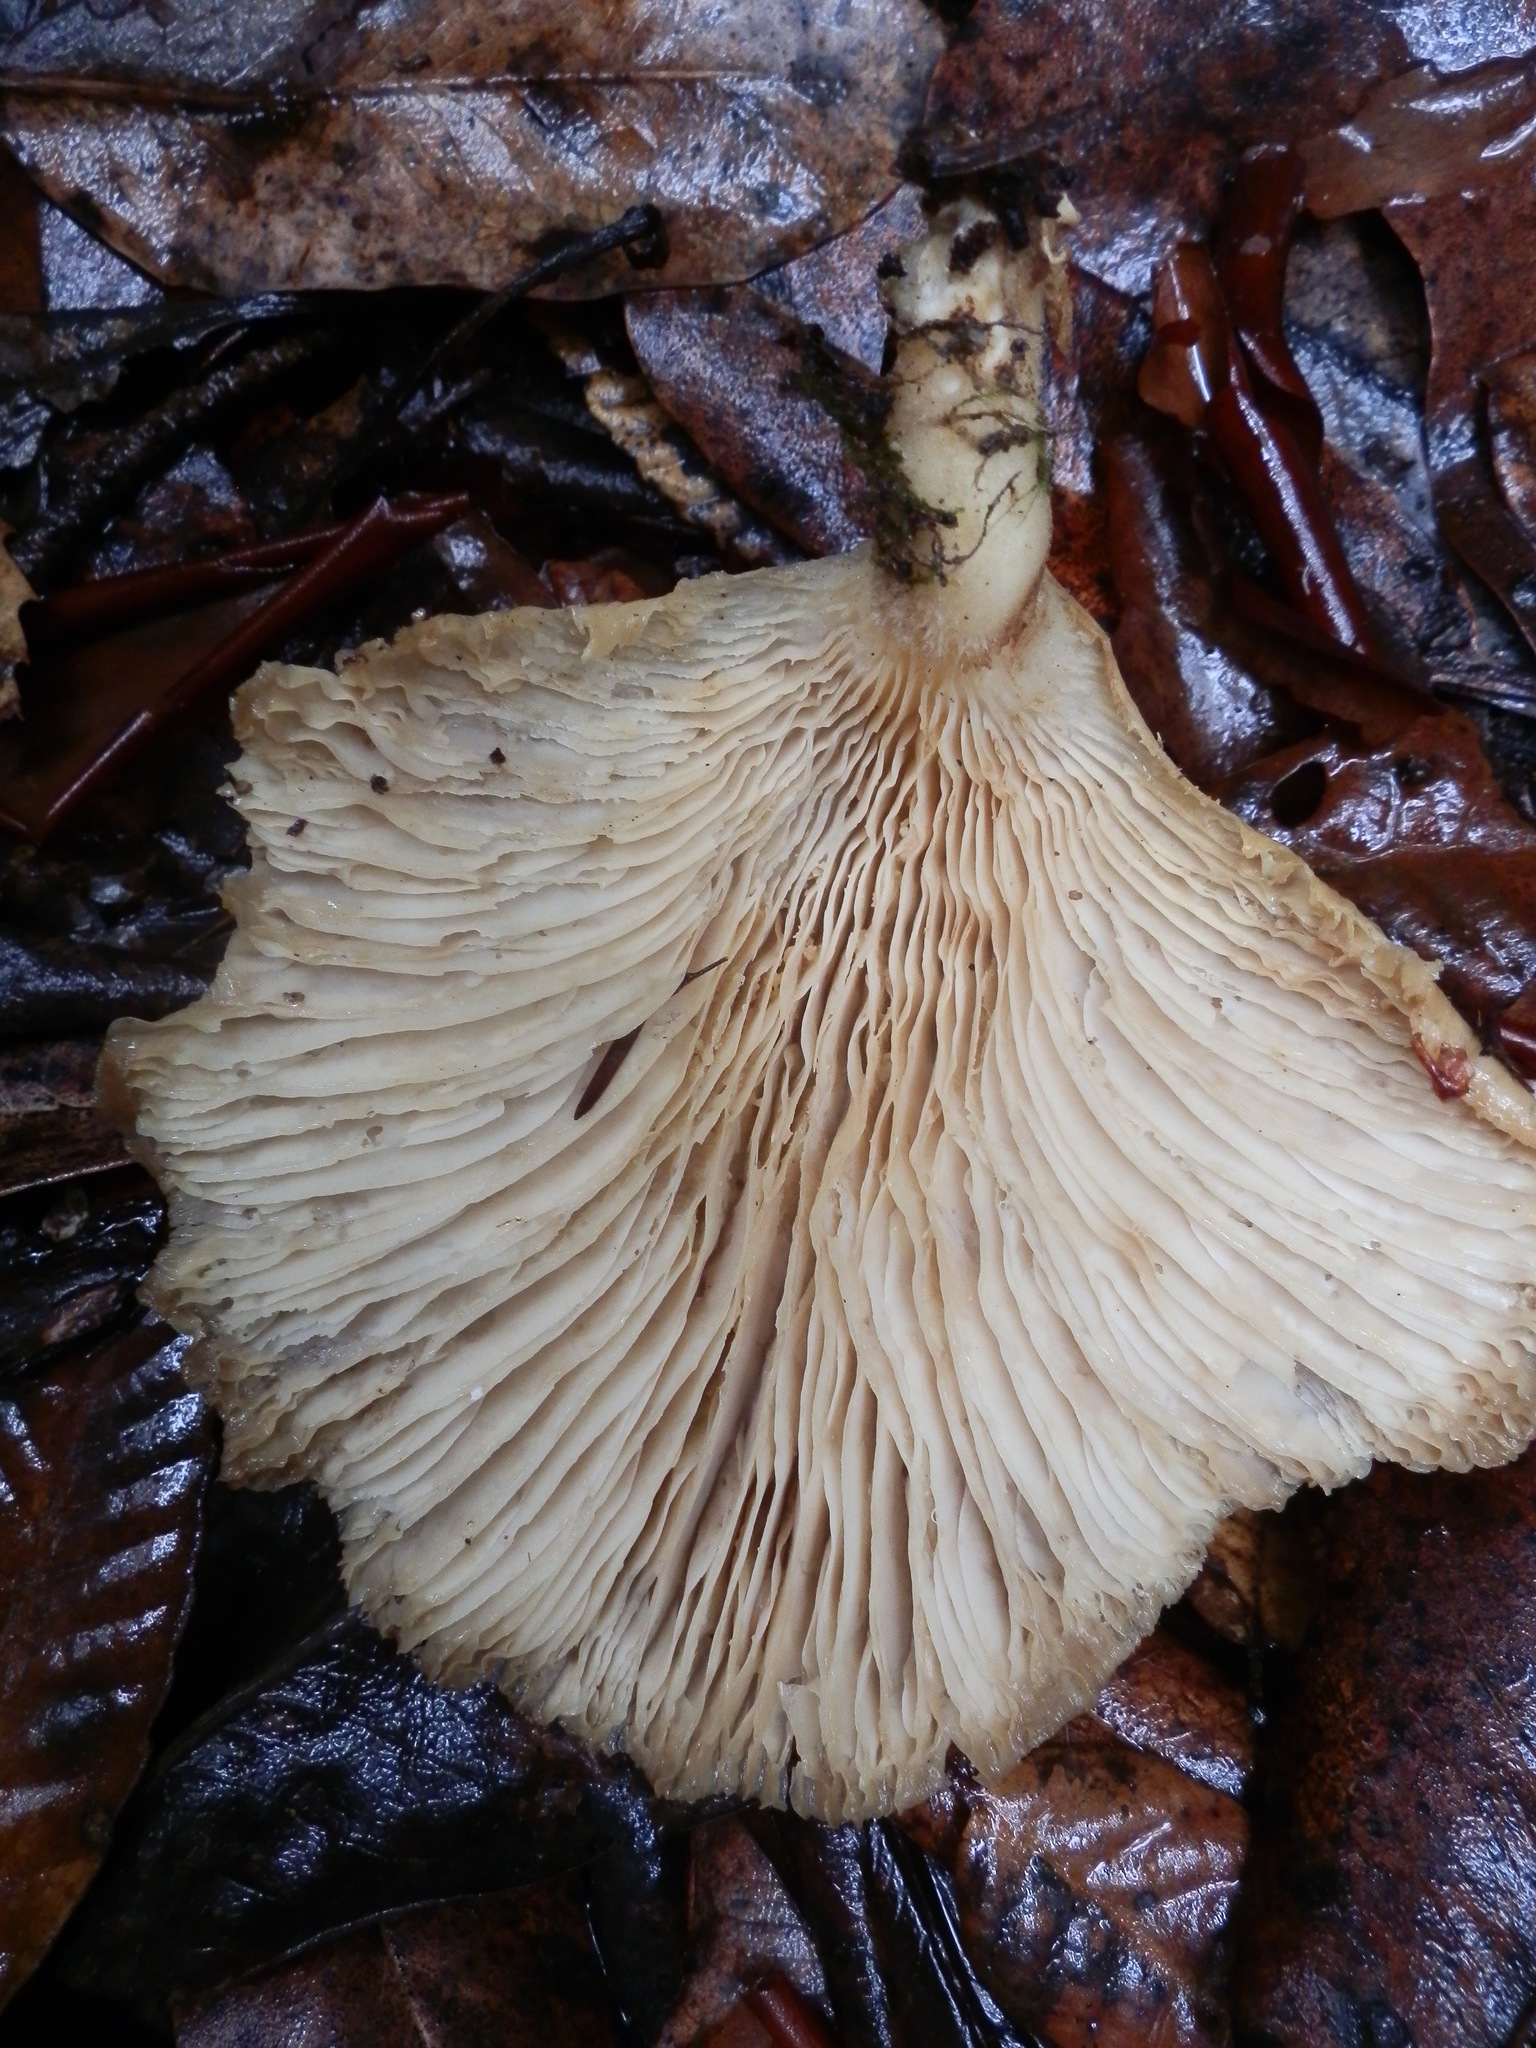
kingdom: Fungi
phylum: Basidiomycota
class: Agaricomycetes
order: Agaricales
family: Pleurotaceae
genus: Pleurotus
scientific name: Pleurotus pulmonarius
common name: Pale oyster
